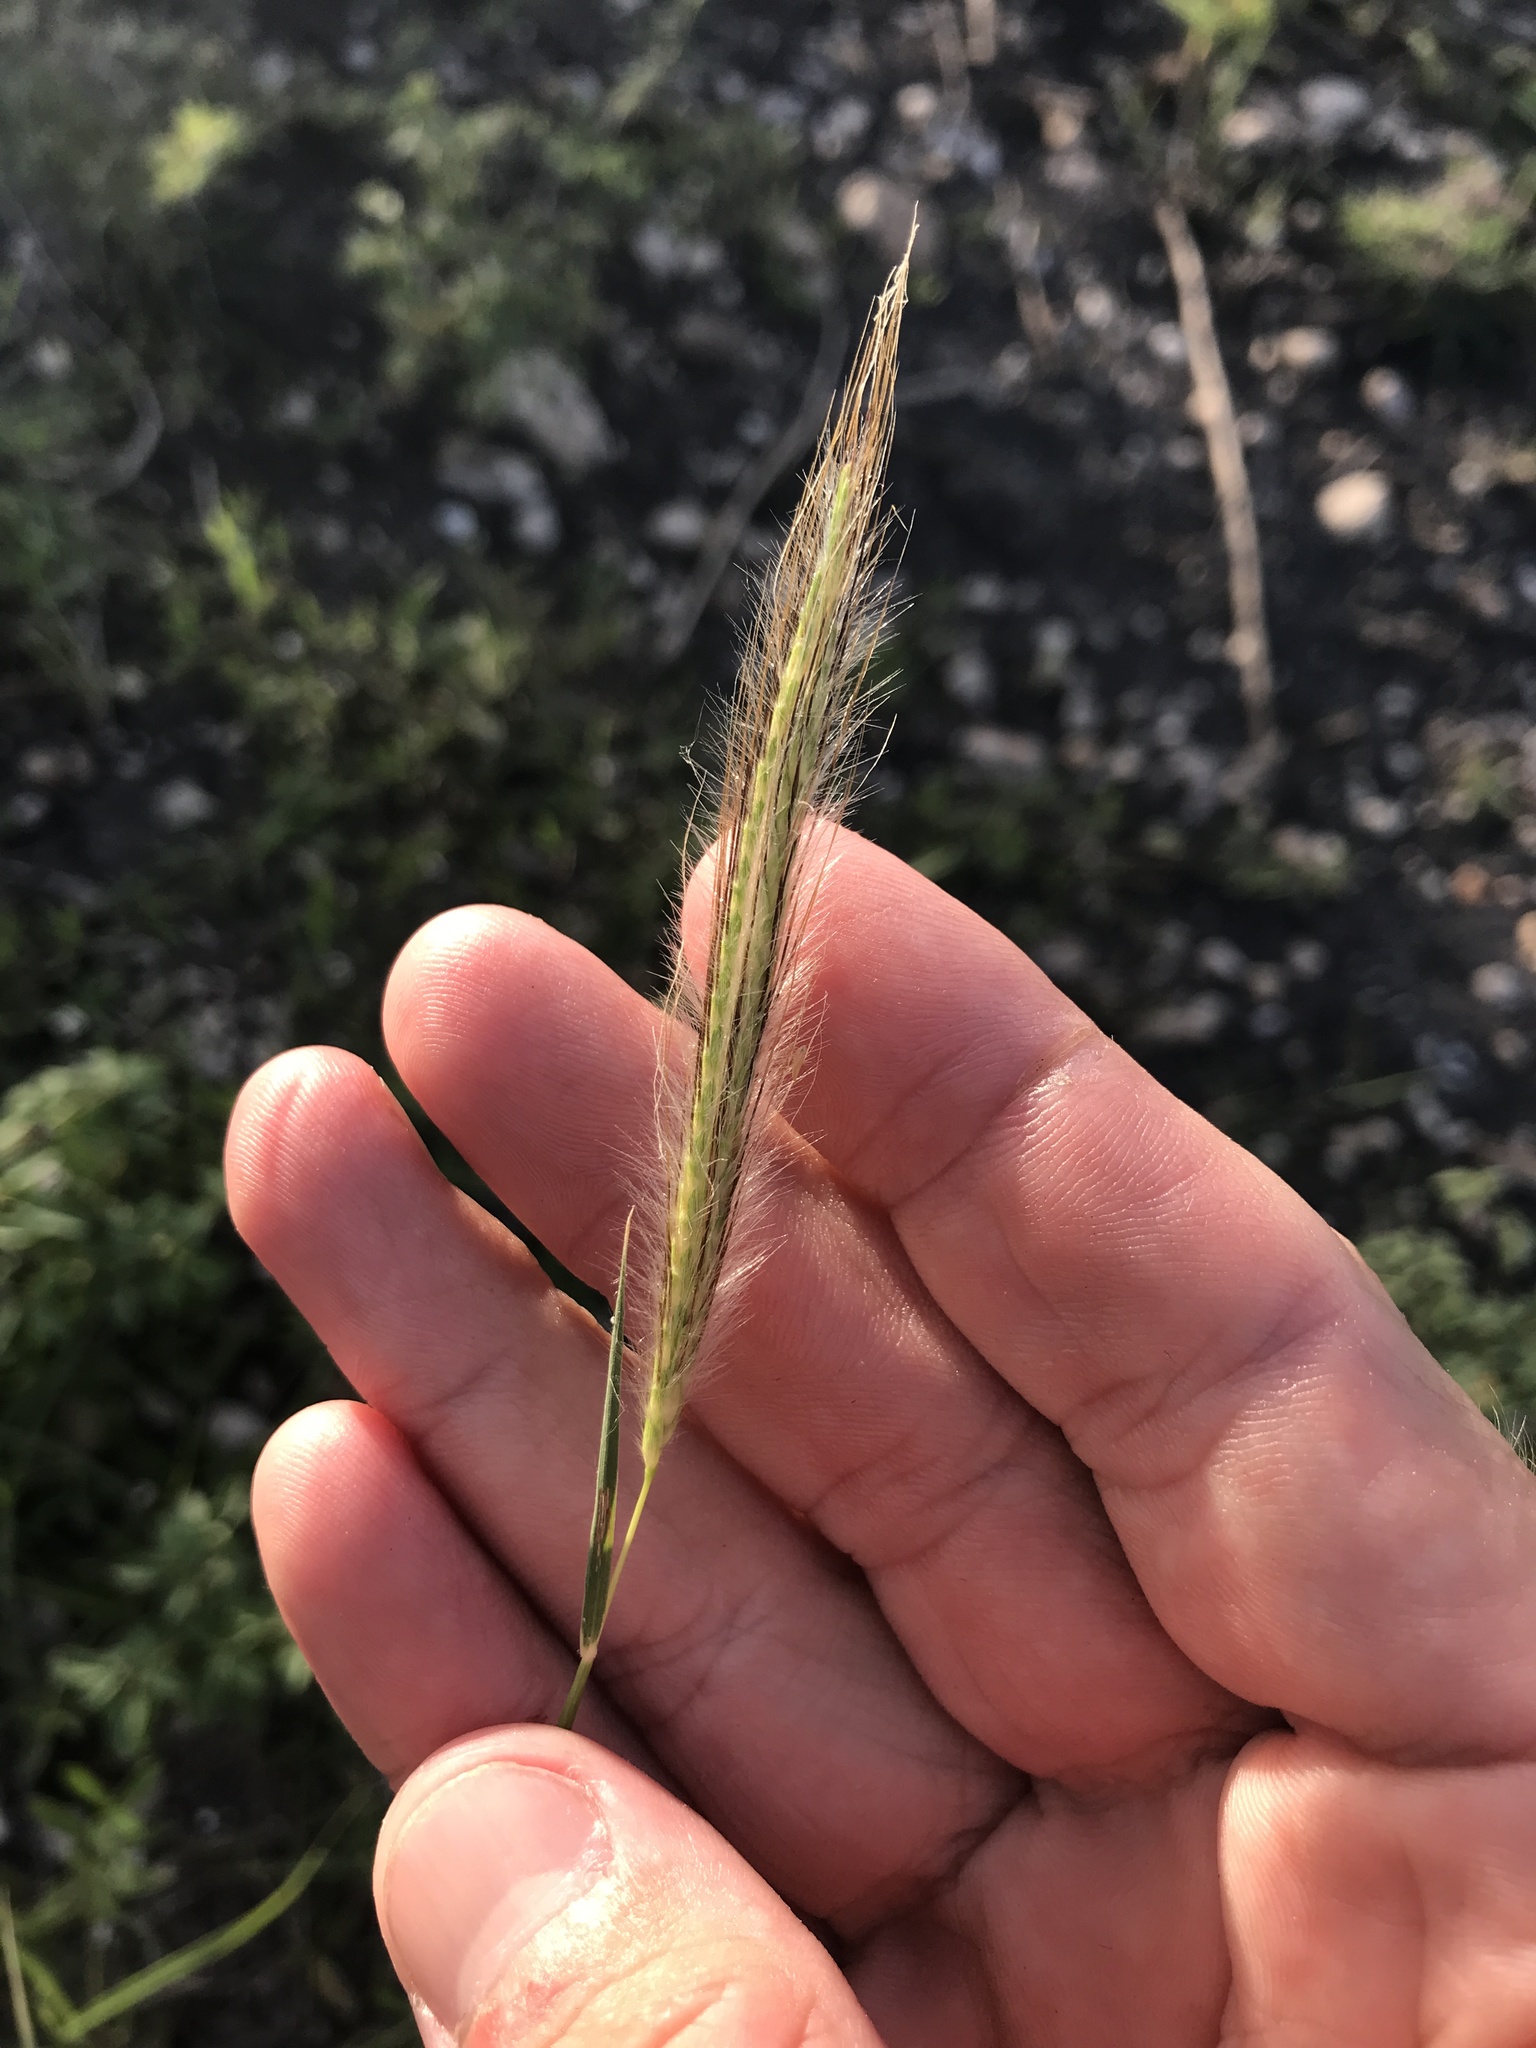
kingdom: Plantae
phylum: Tracheophyta
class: Liliopsida
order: Poales
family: Poaceae
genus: Dichanthium
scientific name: Dichanthium sericeum
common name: Silky bluestem
